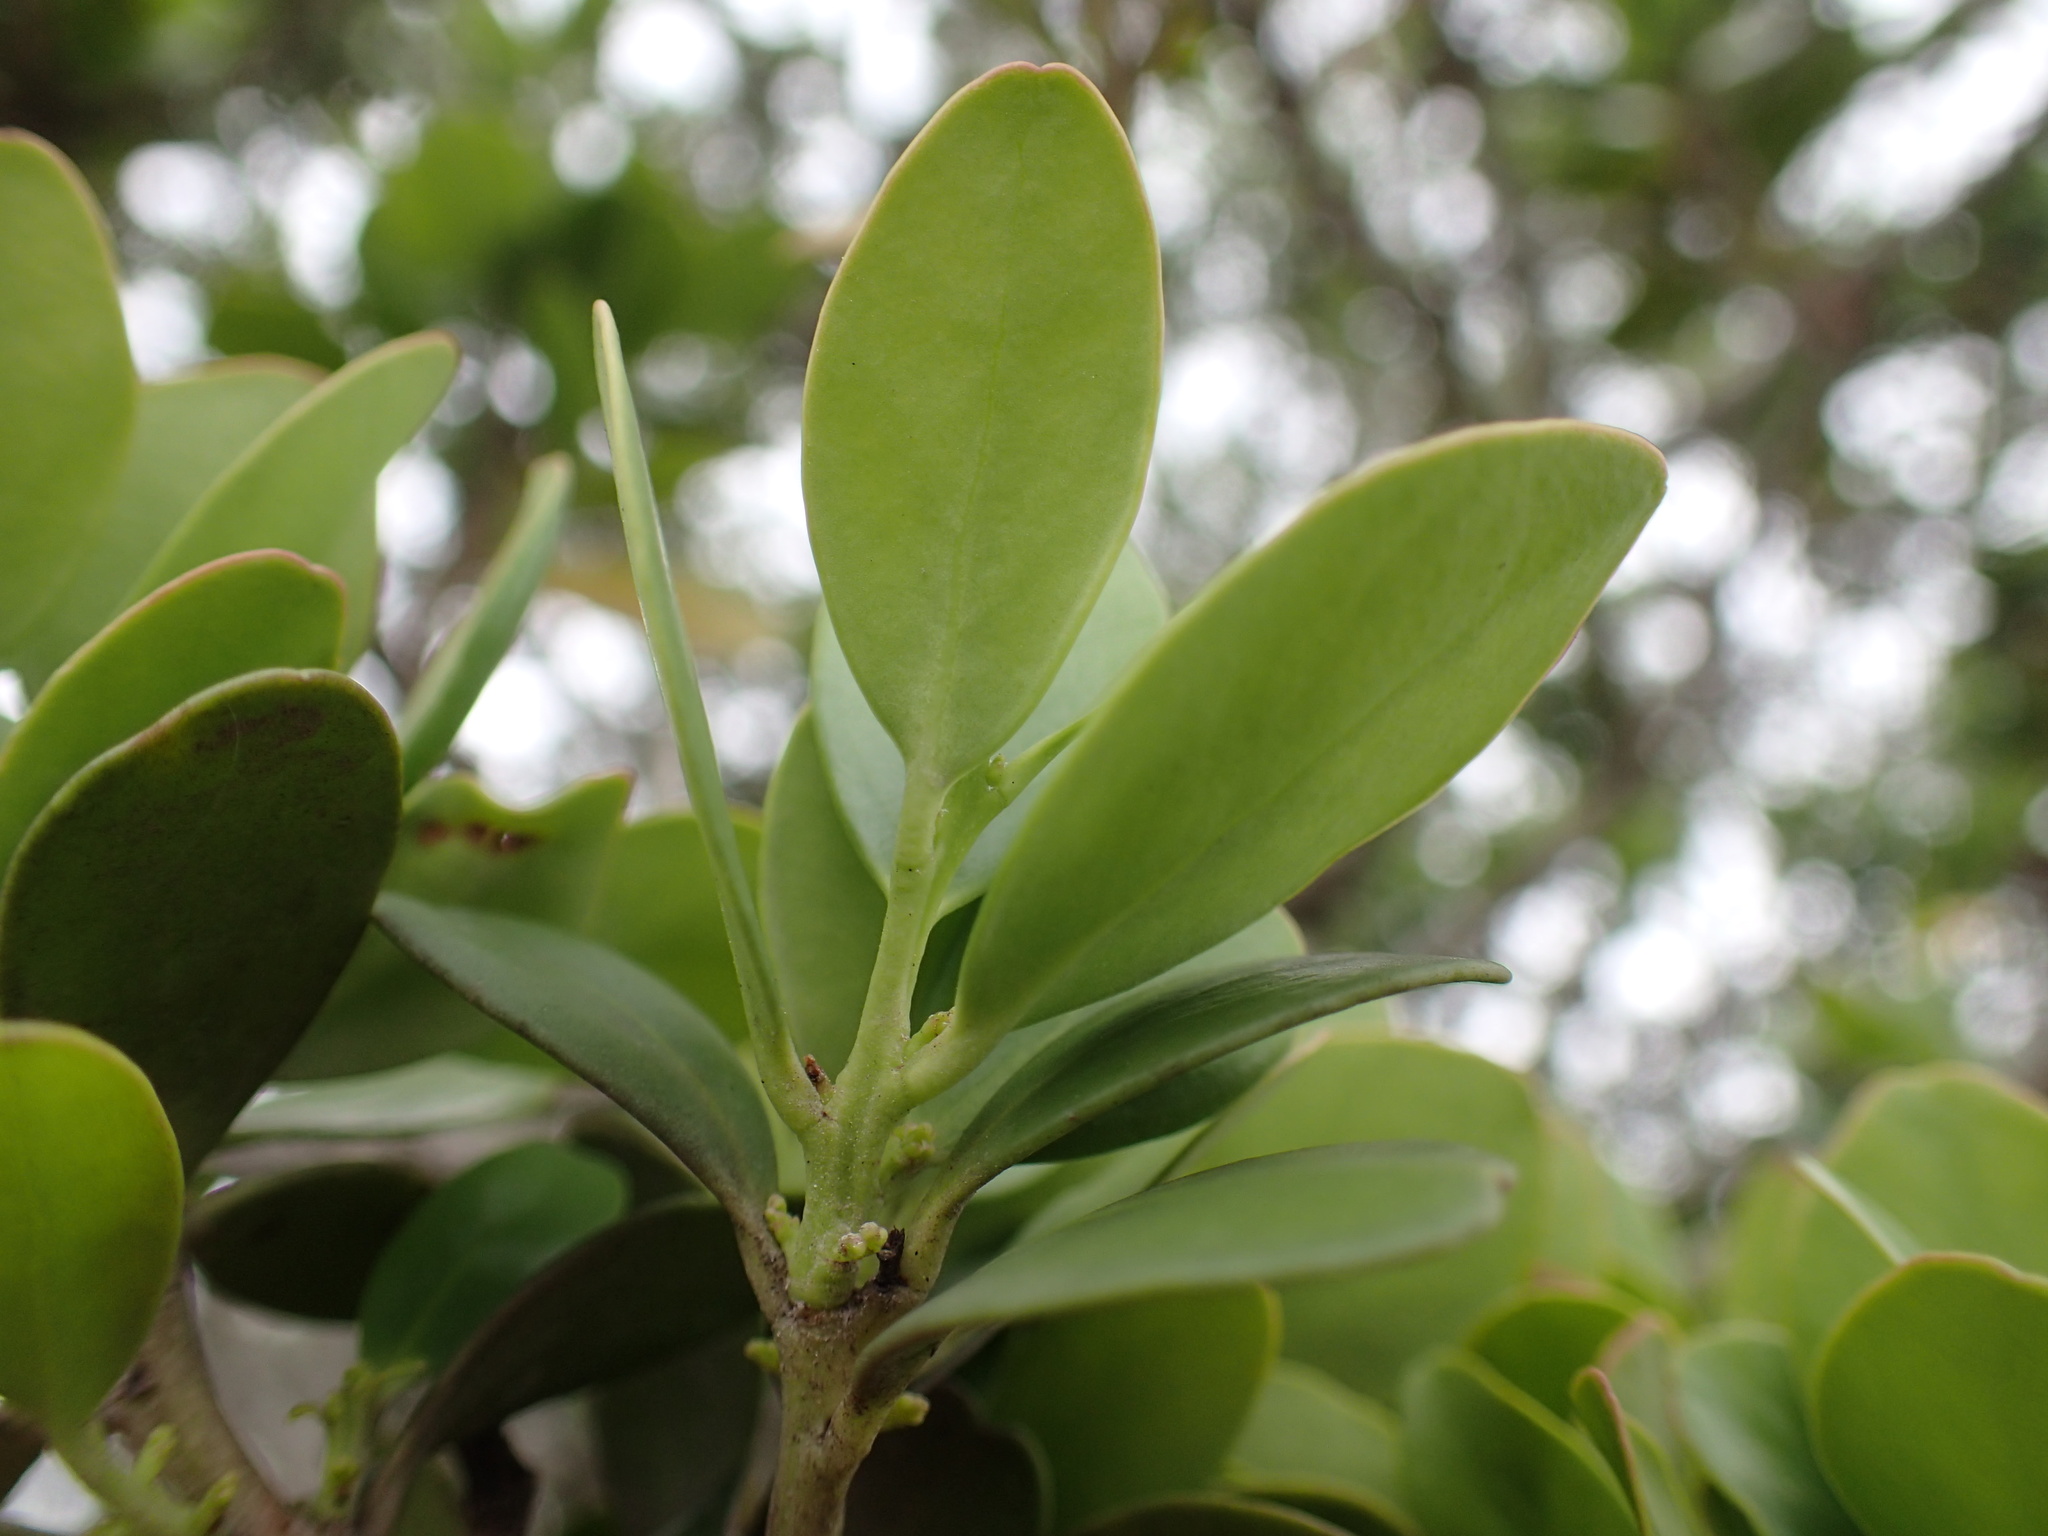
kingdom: Plantae
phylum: Tracheophyta
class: Magnoliopsida
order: Celastrales
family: Celastraceae
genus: Pterocelastrus
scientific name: Pterocelastrus tricuspidatus
